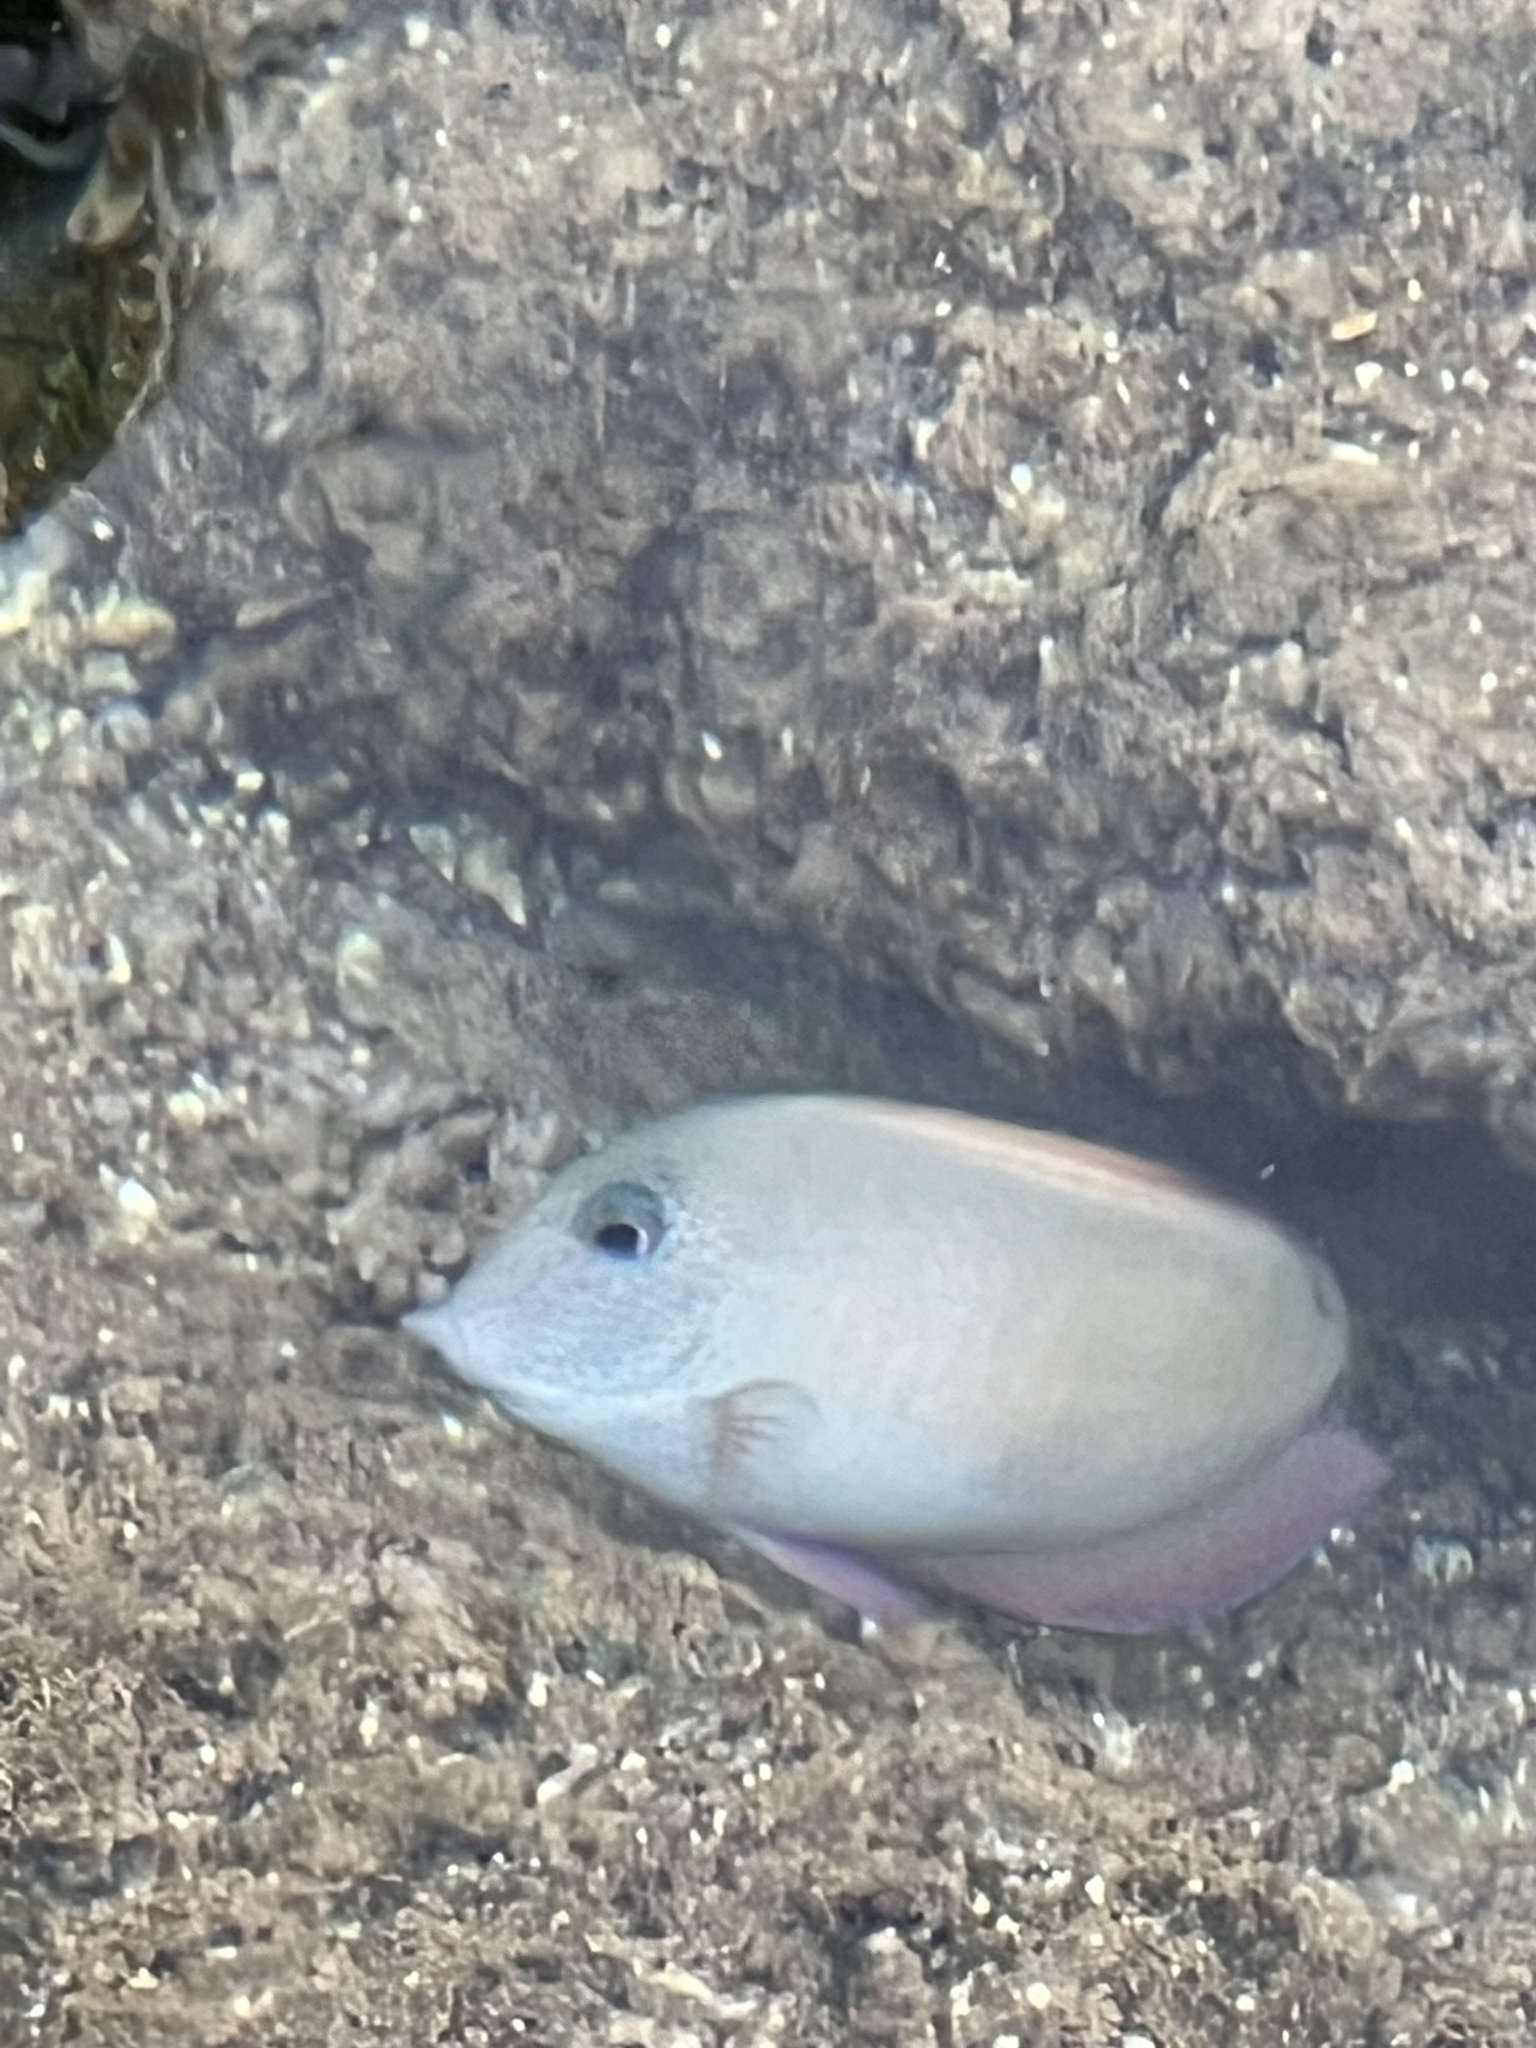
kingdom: Animalia
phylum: Chordata
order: Perciformes
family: Acanthuridae
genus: Acanthurus
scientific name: Acanthurus nigrofuscus
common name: Blackspot surgeonfish
